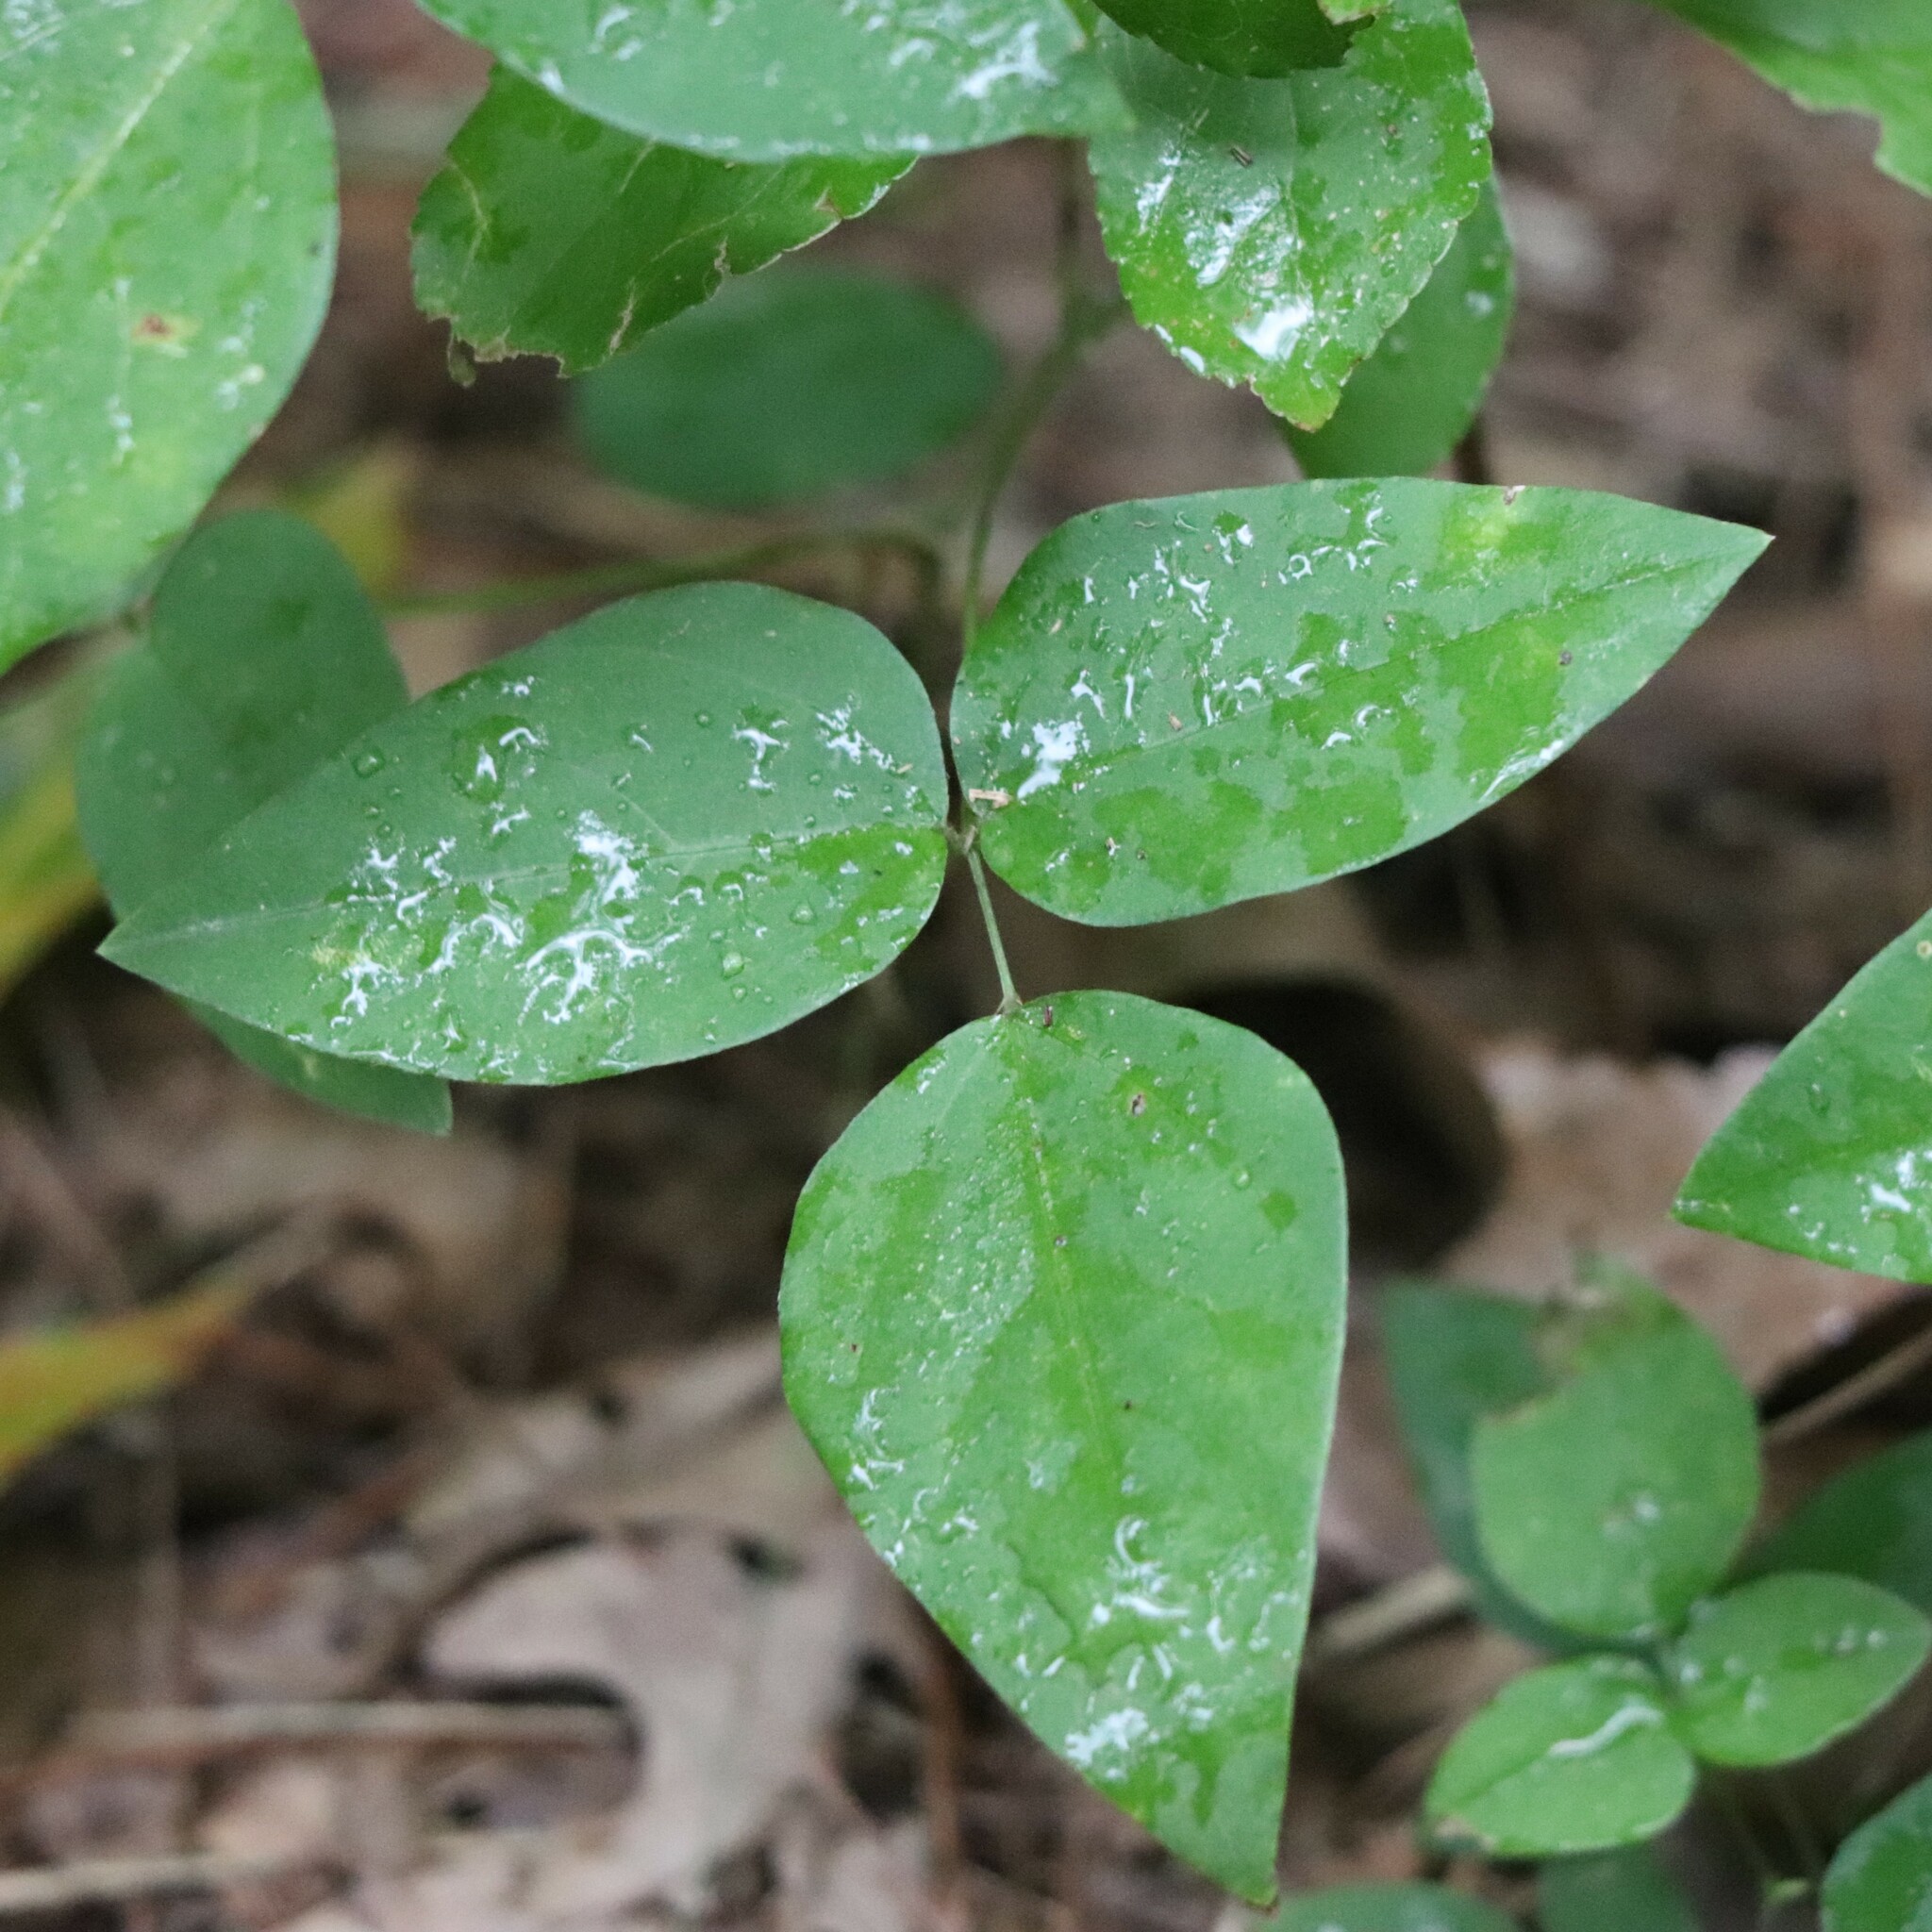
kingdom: Plantae
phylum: Tracheophyta
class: Magnoliopsida
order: Fabales
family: Fabaceae
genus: Amphicarpaea
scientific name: Amphicarpaea bracteata
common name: American hog peanut
